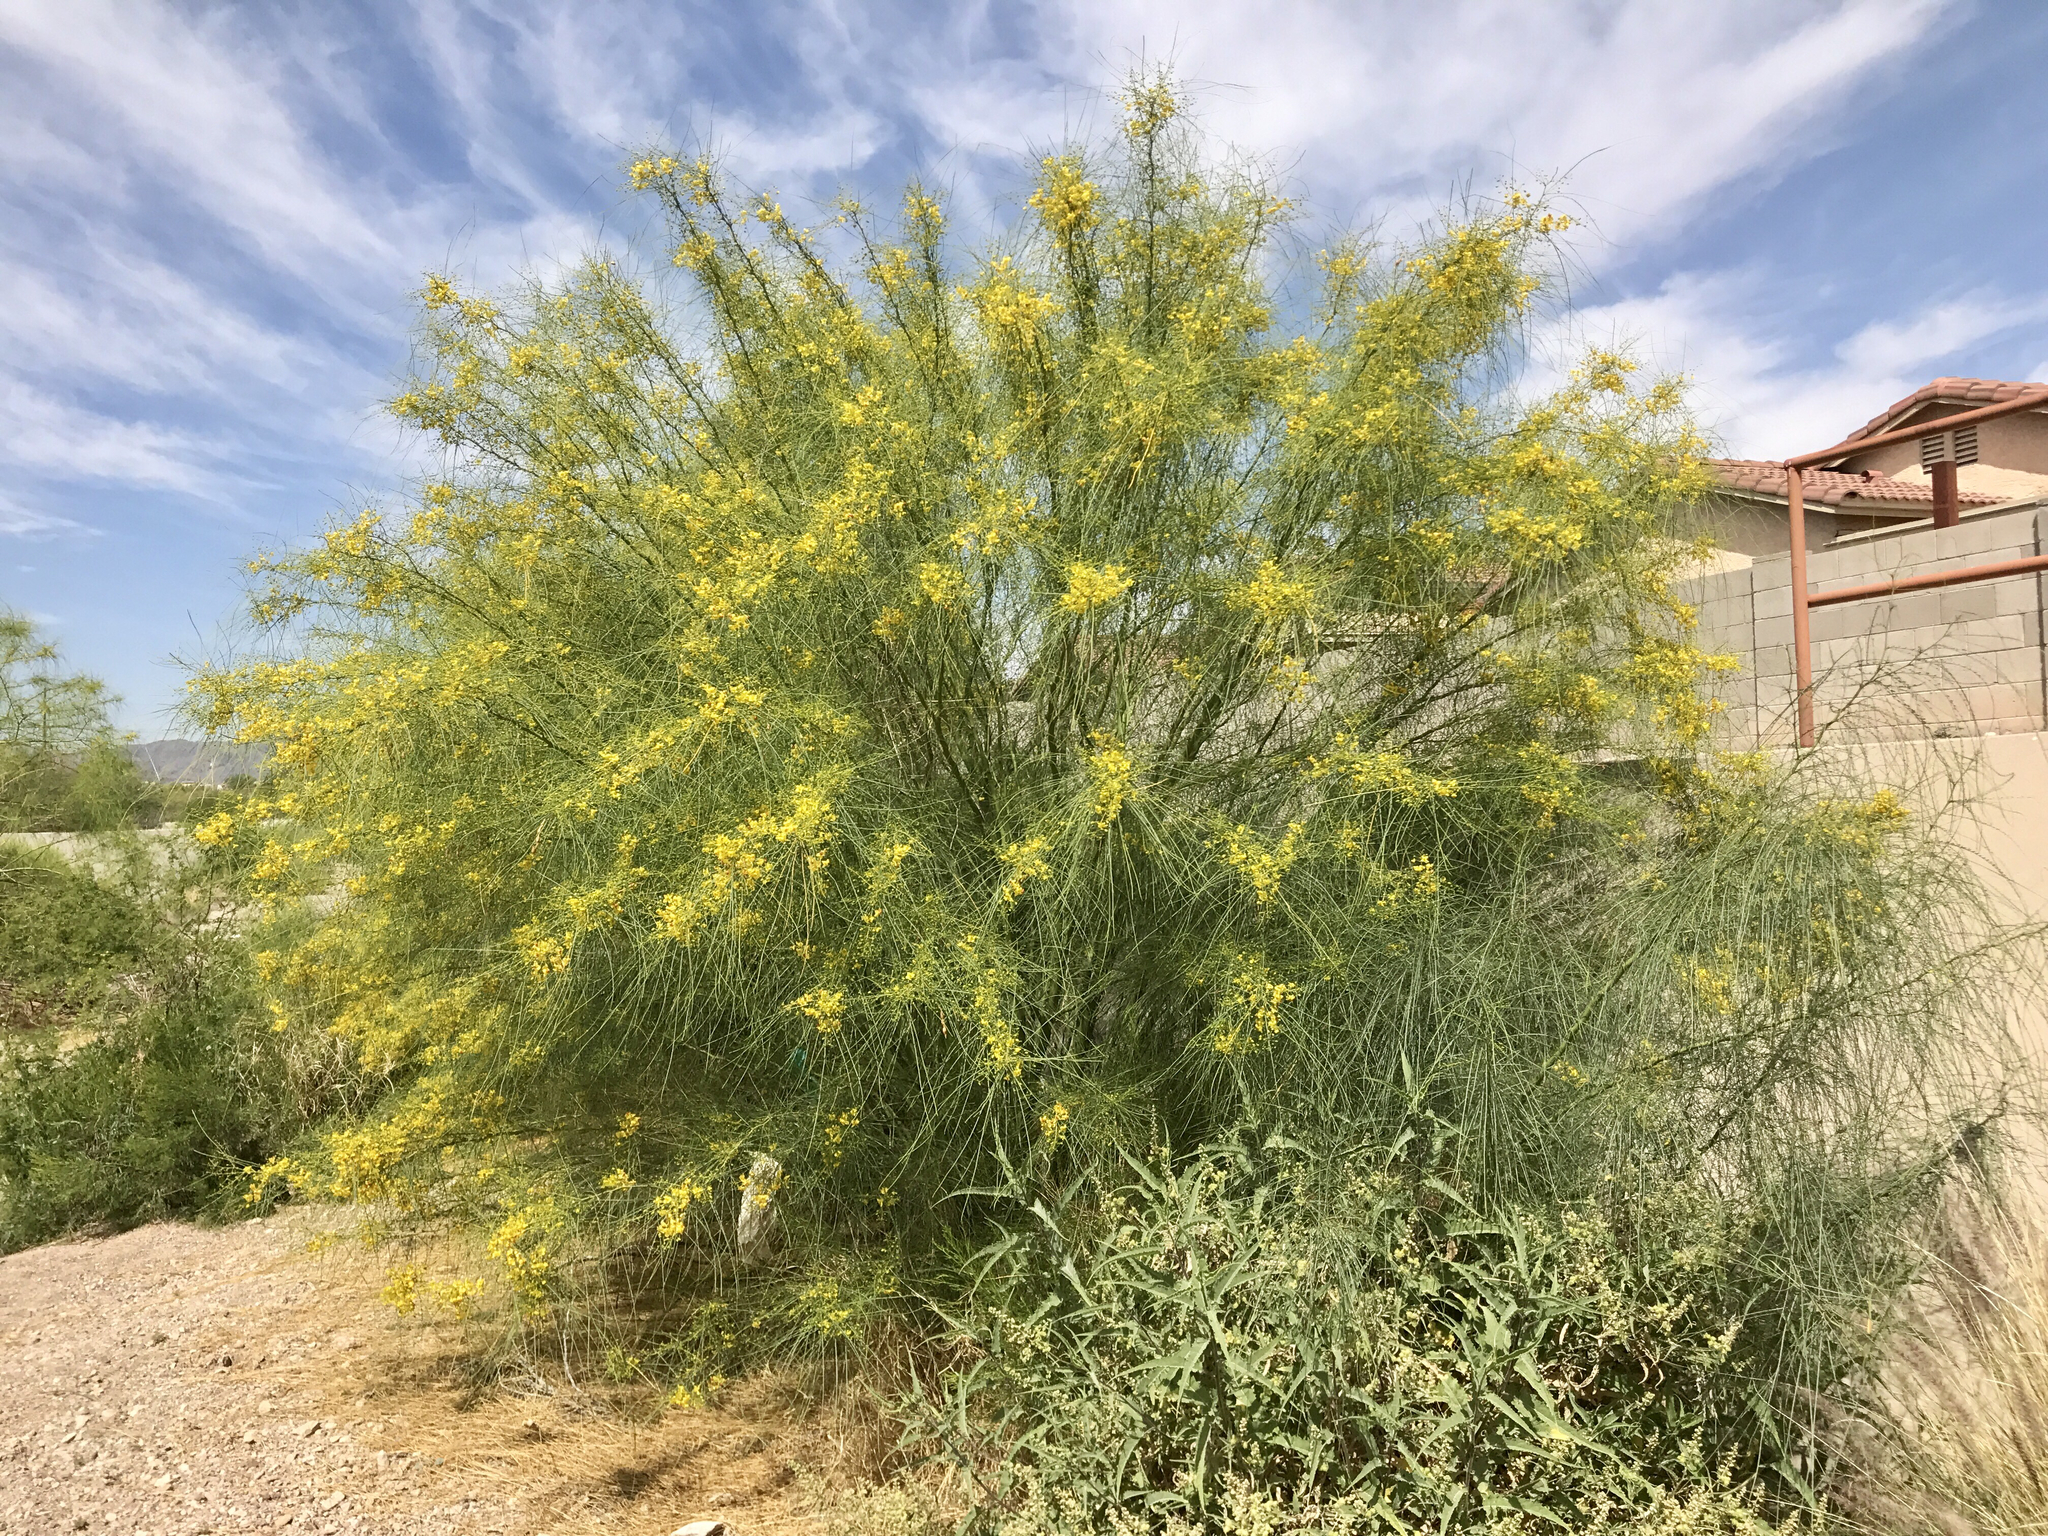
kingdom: Plantae
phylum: Tracheophyta
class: Magnoliopsida
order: Fabales
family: Fabaceae
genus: Parkinsonia
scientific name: Parkinsonia aculeata
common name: Jerusalem thorn
